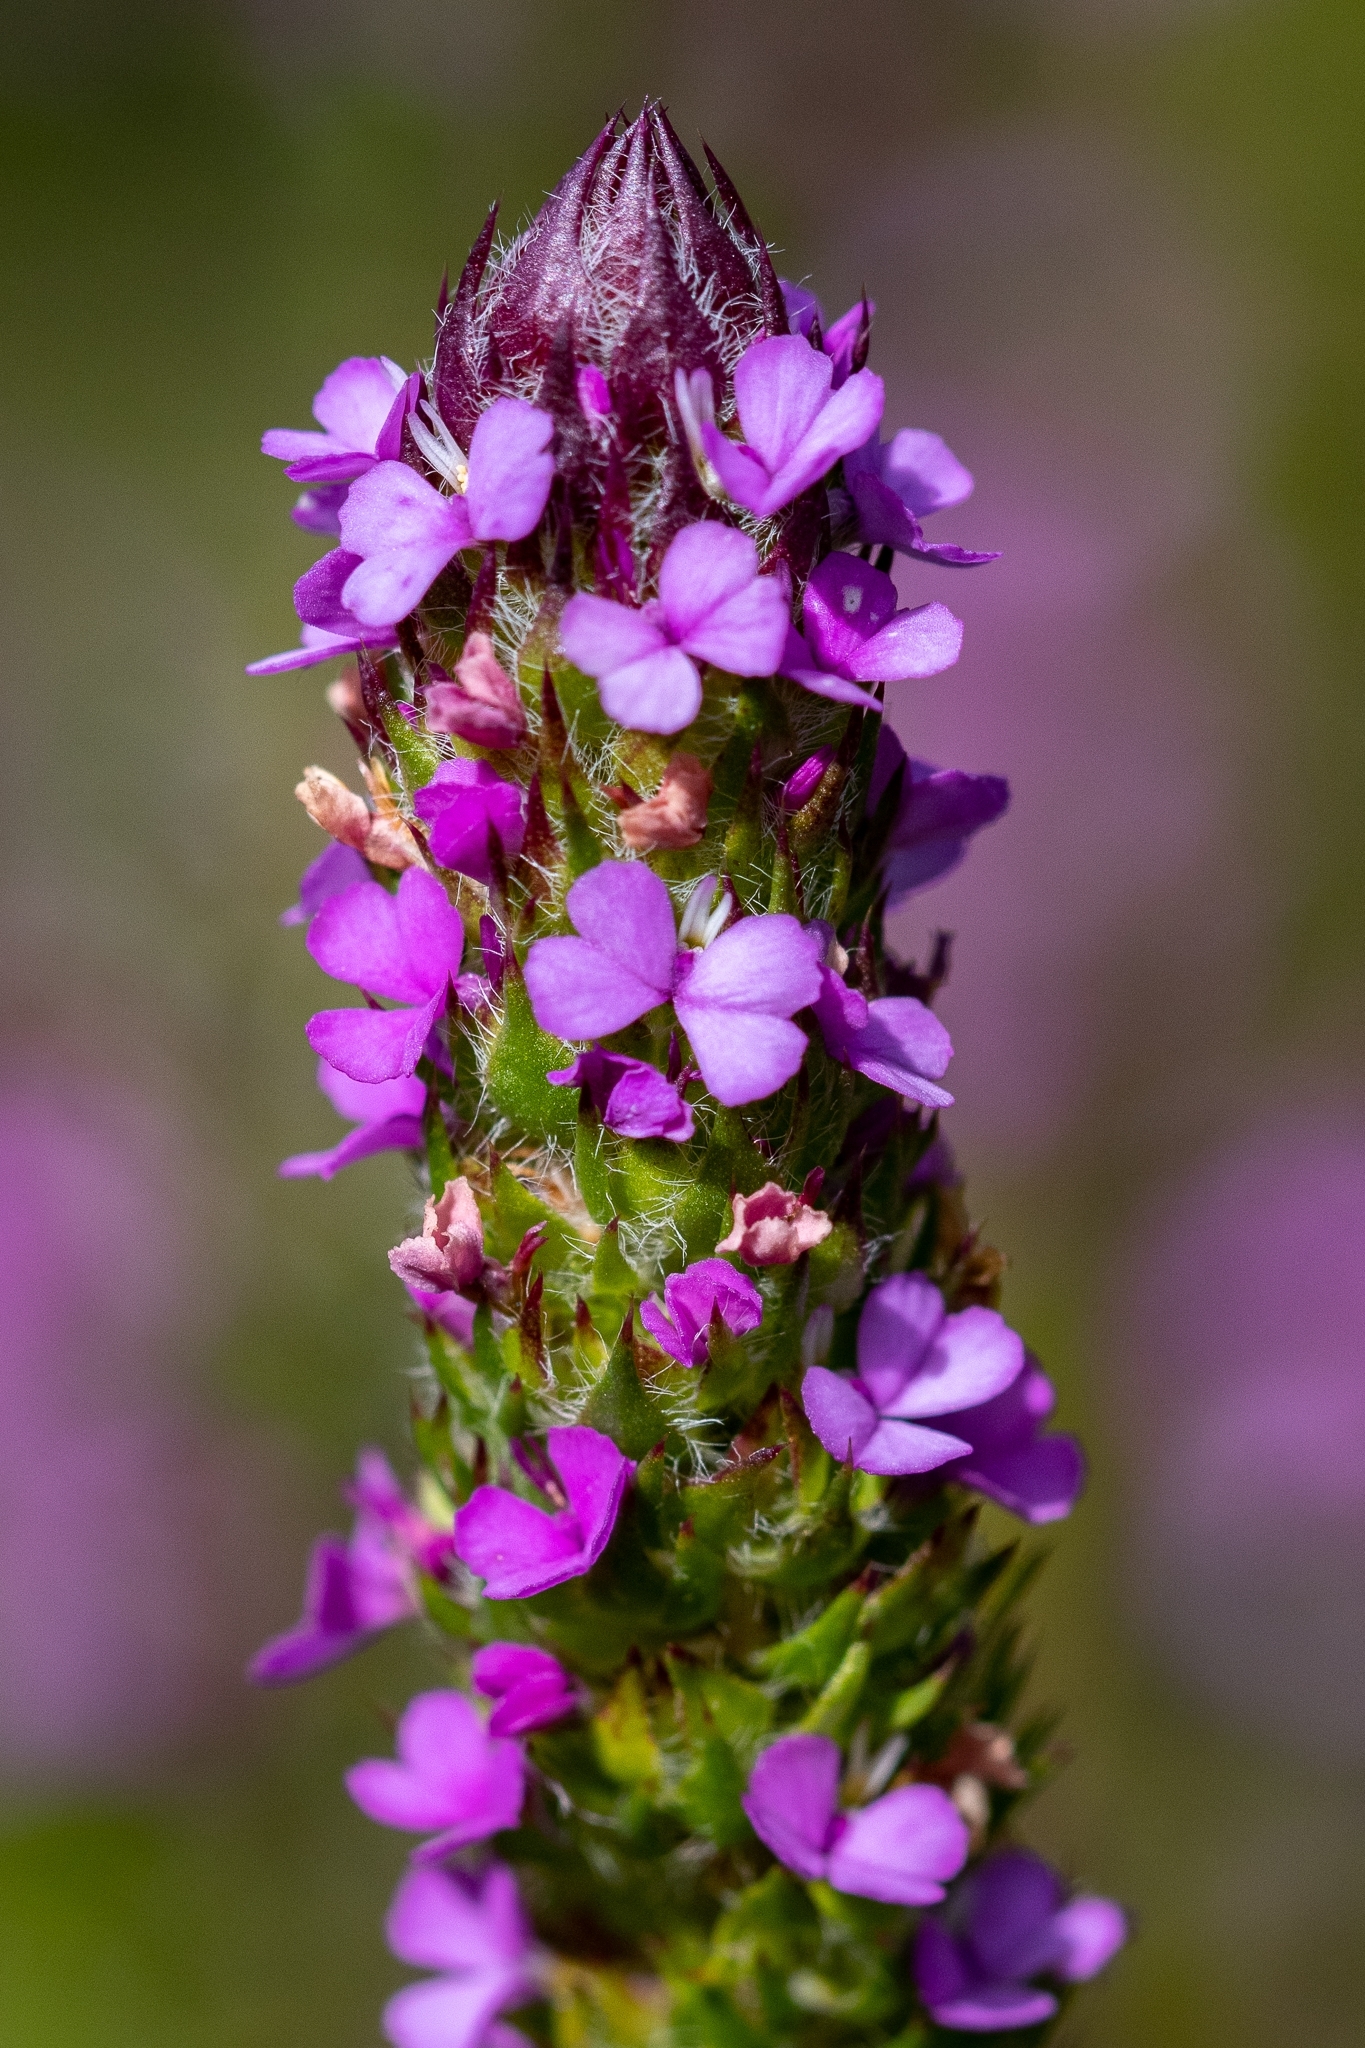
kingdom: Plantae
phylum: Tracheophyta
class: Magnoliopsida
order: Fabales
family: Polygalaceae
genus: Muraltia
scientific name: Muraltia vulpina
